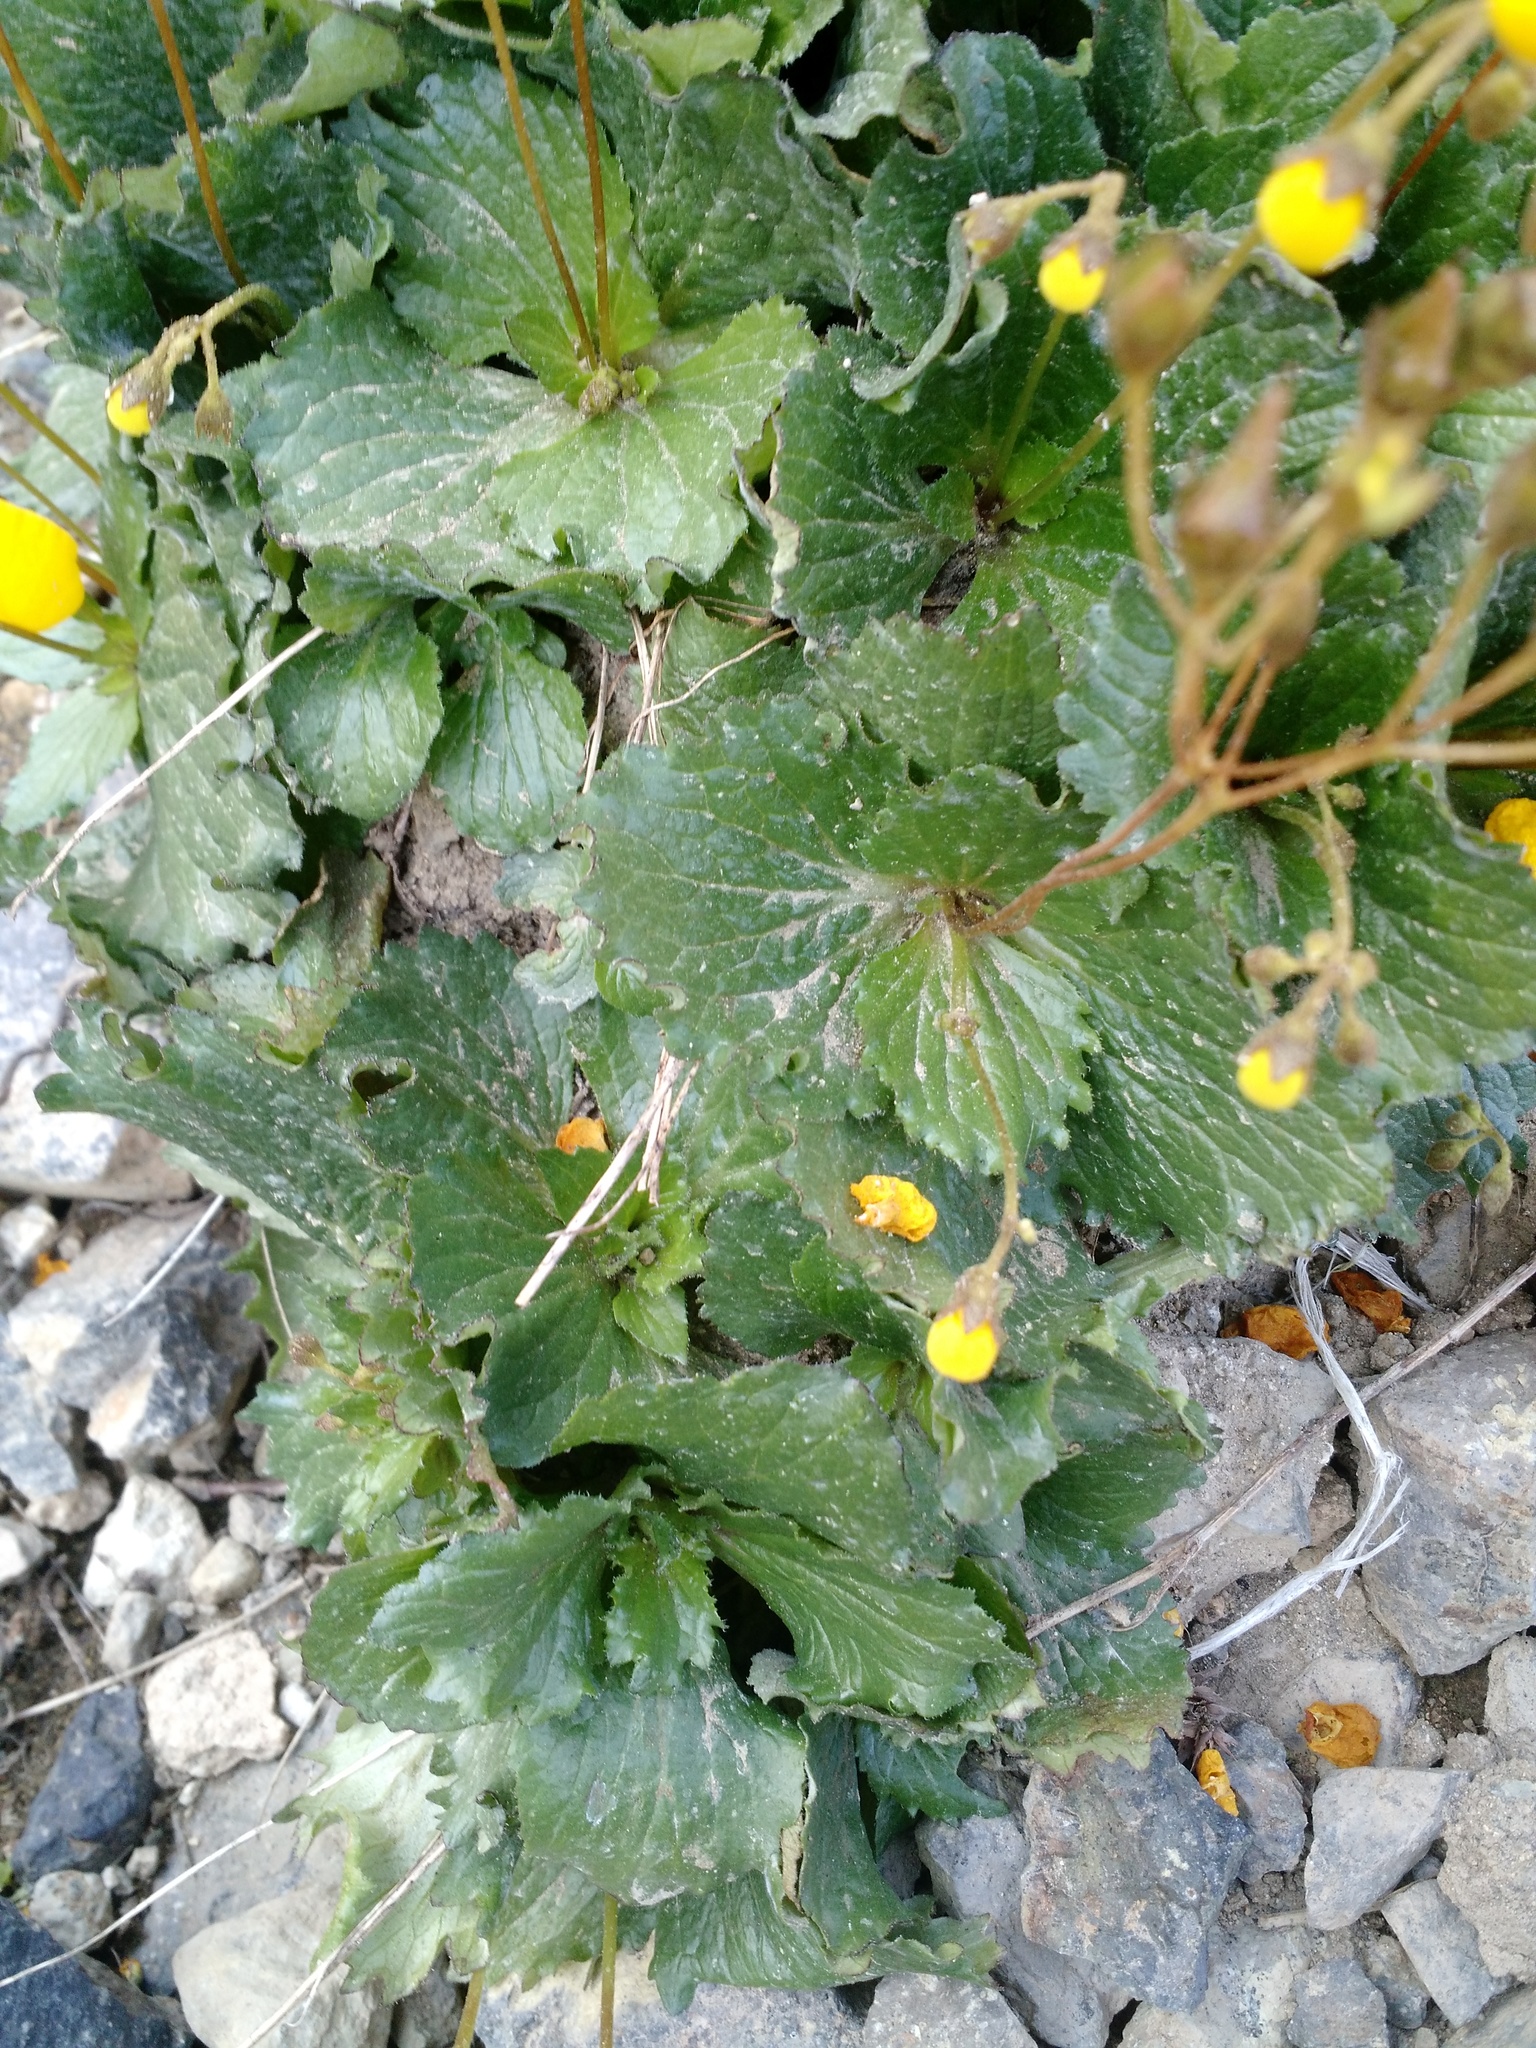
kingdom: Plantae
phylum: Tracheophyta
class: Magnoliopsida
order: Lamiales
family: Calceolariaceae
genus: Calceolaria
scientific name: Calceolaria filicaulis
